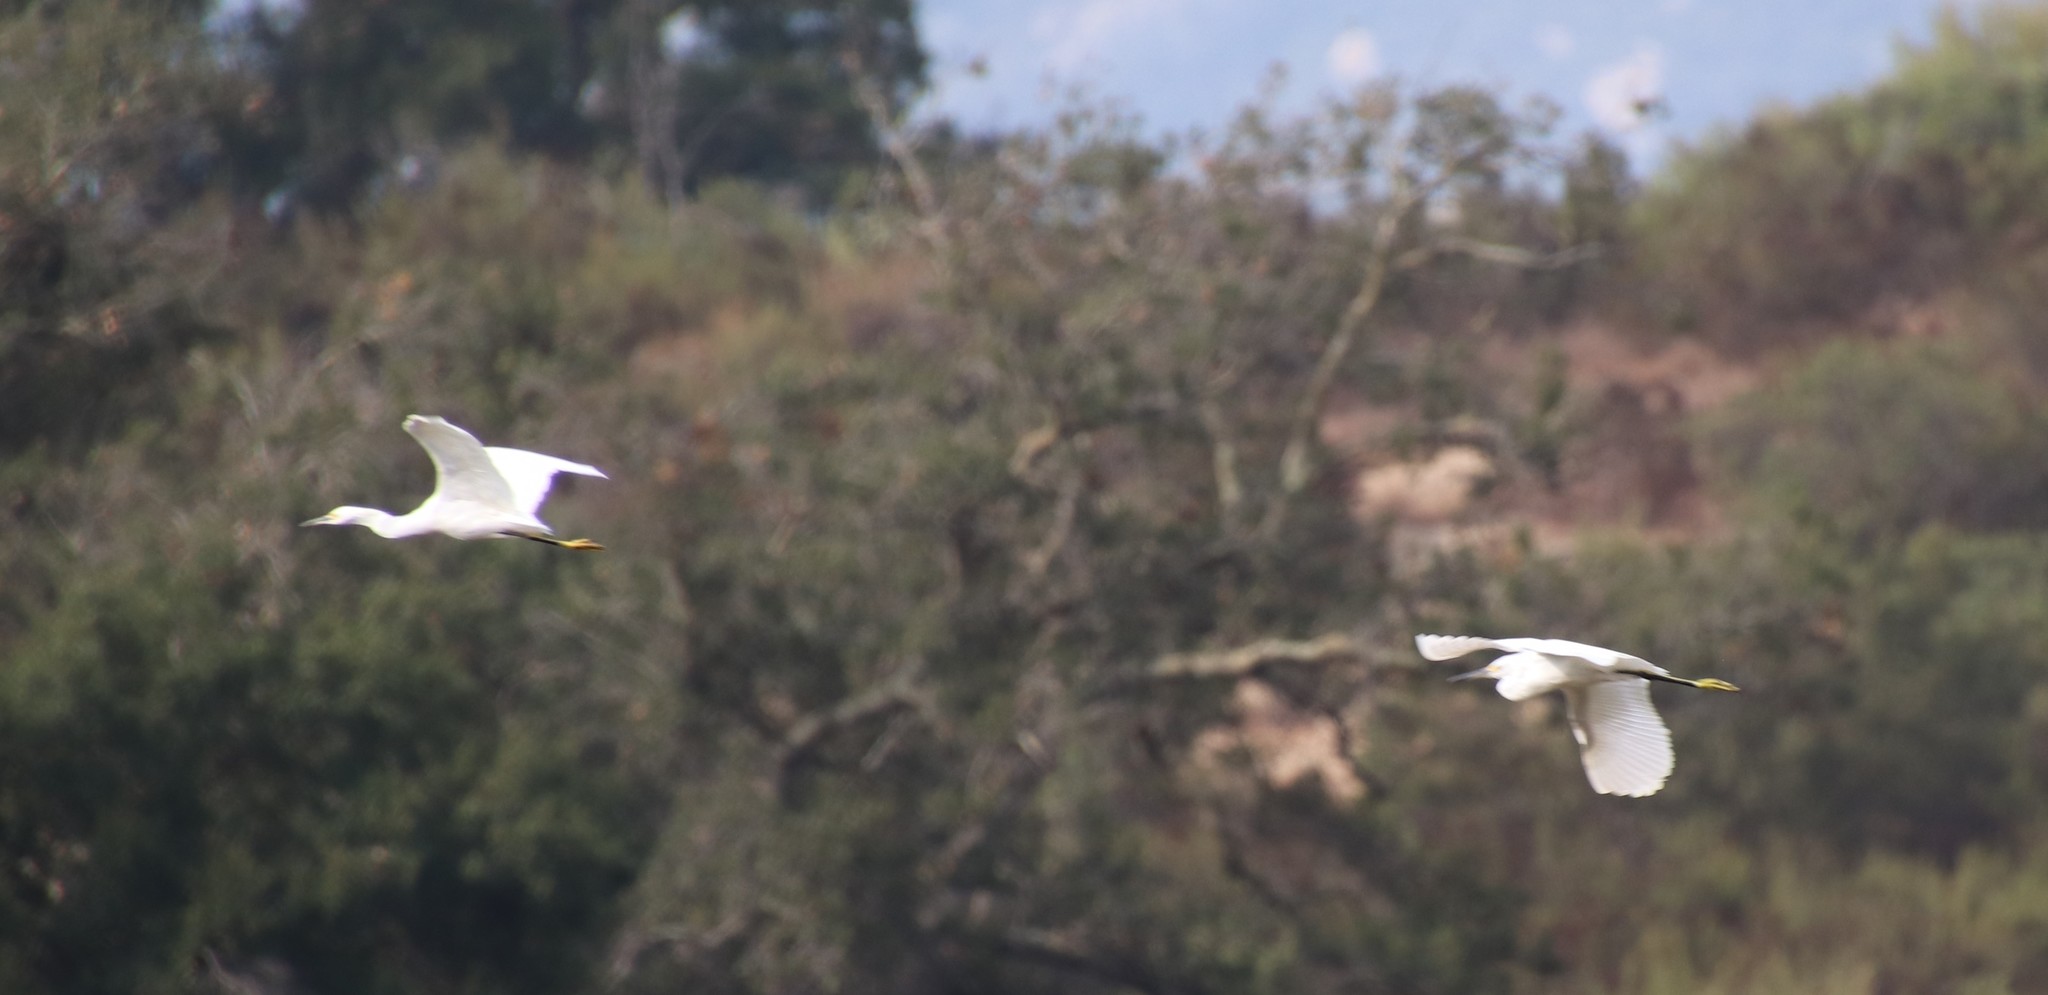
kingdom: Animalia
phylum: Chordata
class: Aves
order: Pelecaniformes
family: Ardeidae
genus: Egretta
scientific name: Egretta thula
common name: Snowy egret
